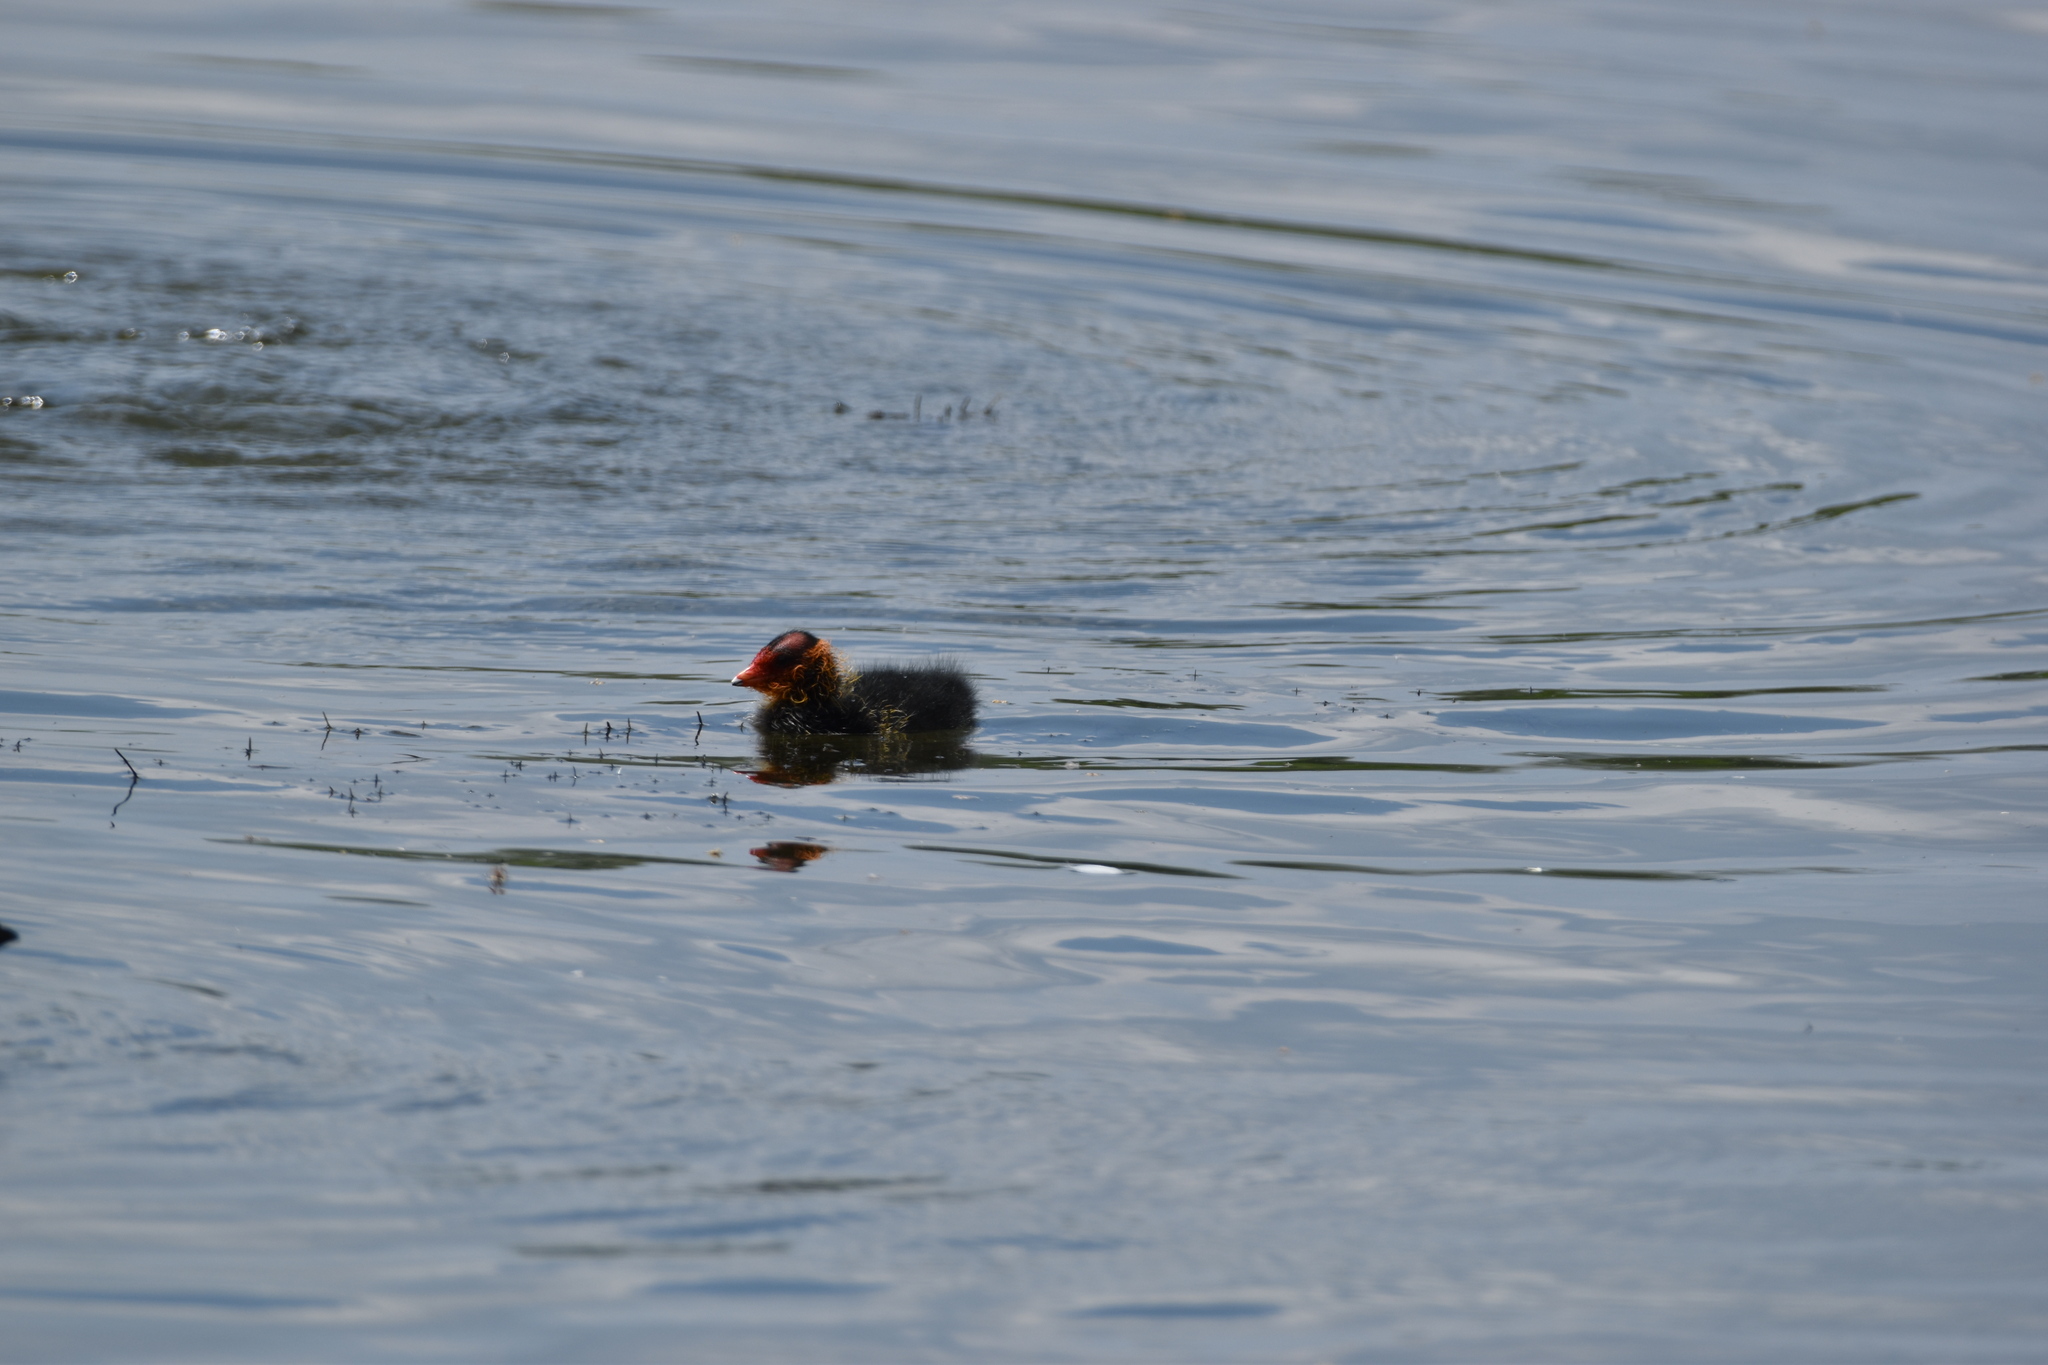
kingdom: Animalia
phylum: Chordata
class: Aves
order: Gruiformes
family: Rallidae
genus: Fulica
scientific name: Fulica atra
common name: Eurasian coot
